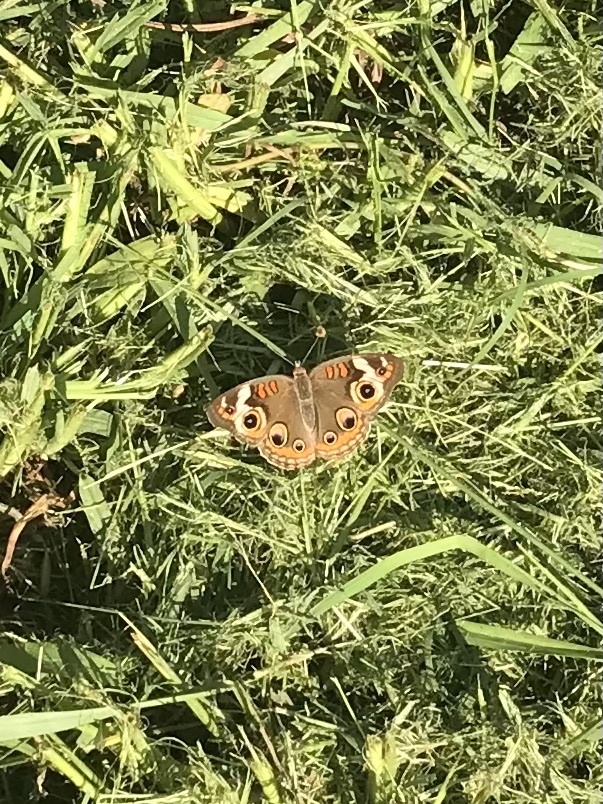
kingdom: Animalia
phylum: Arthropoda
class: Insecta
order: Lepidoptera
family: Nymphalidae
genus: Junonia
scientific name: Junonia coenia
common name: Common buckeye
